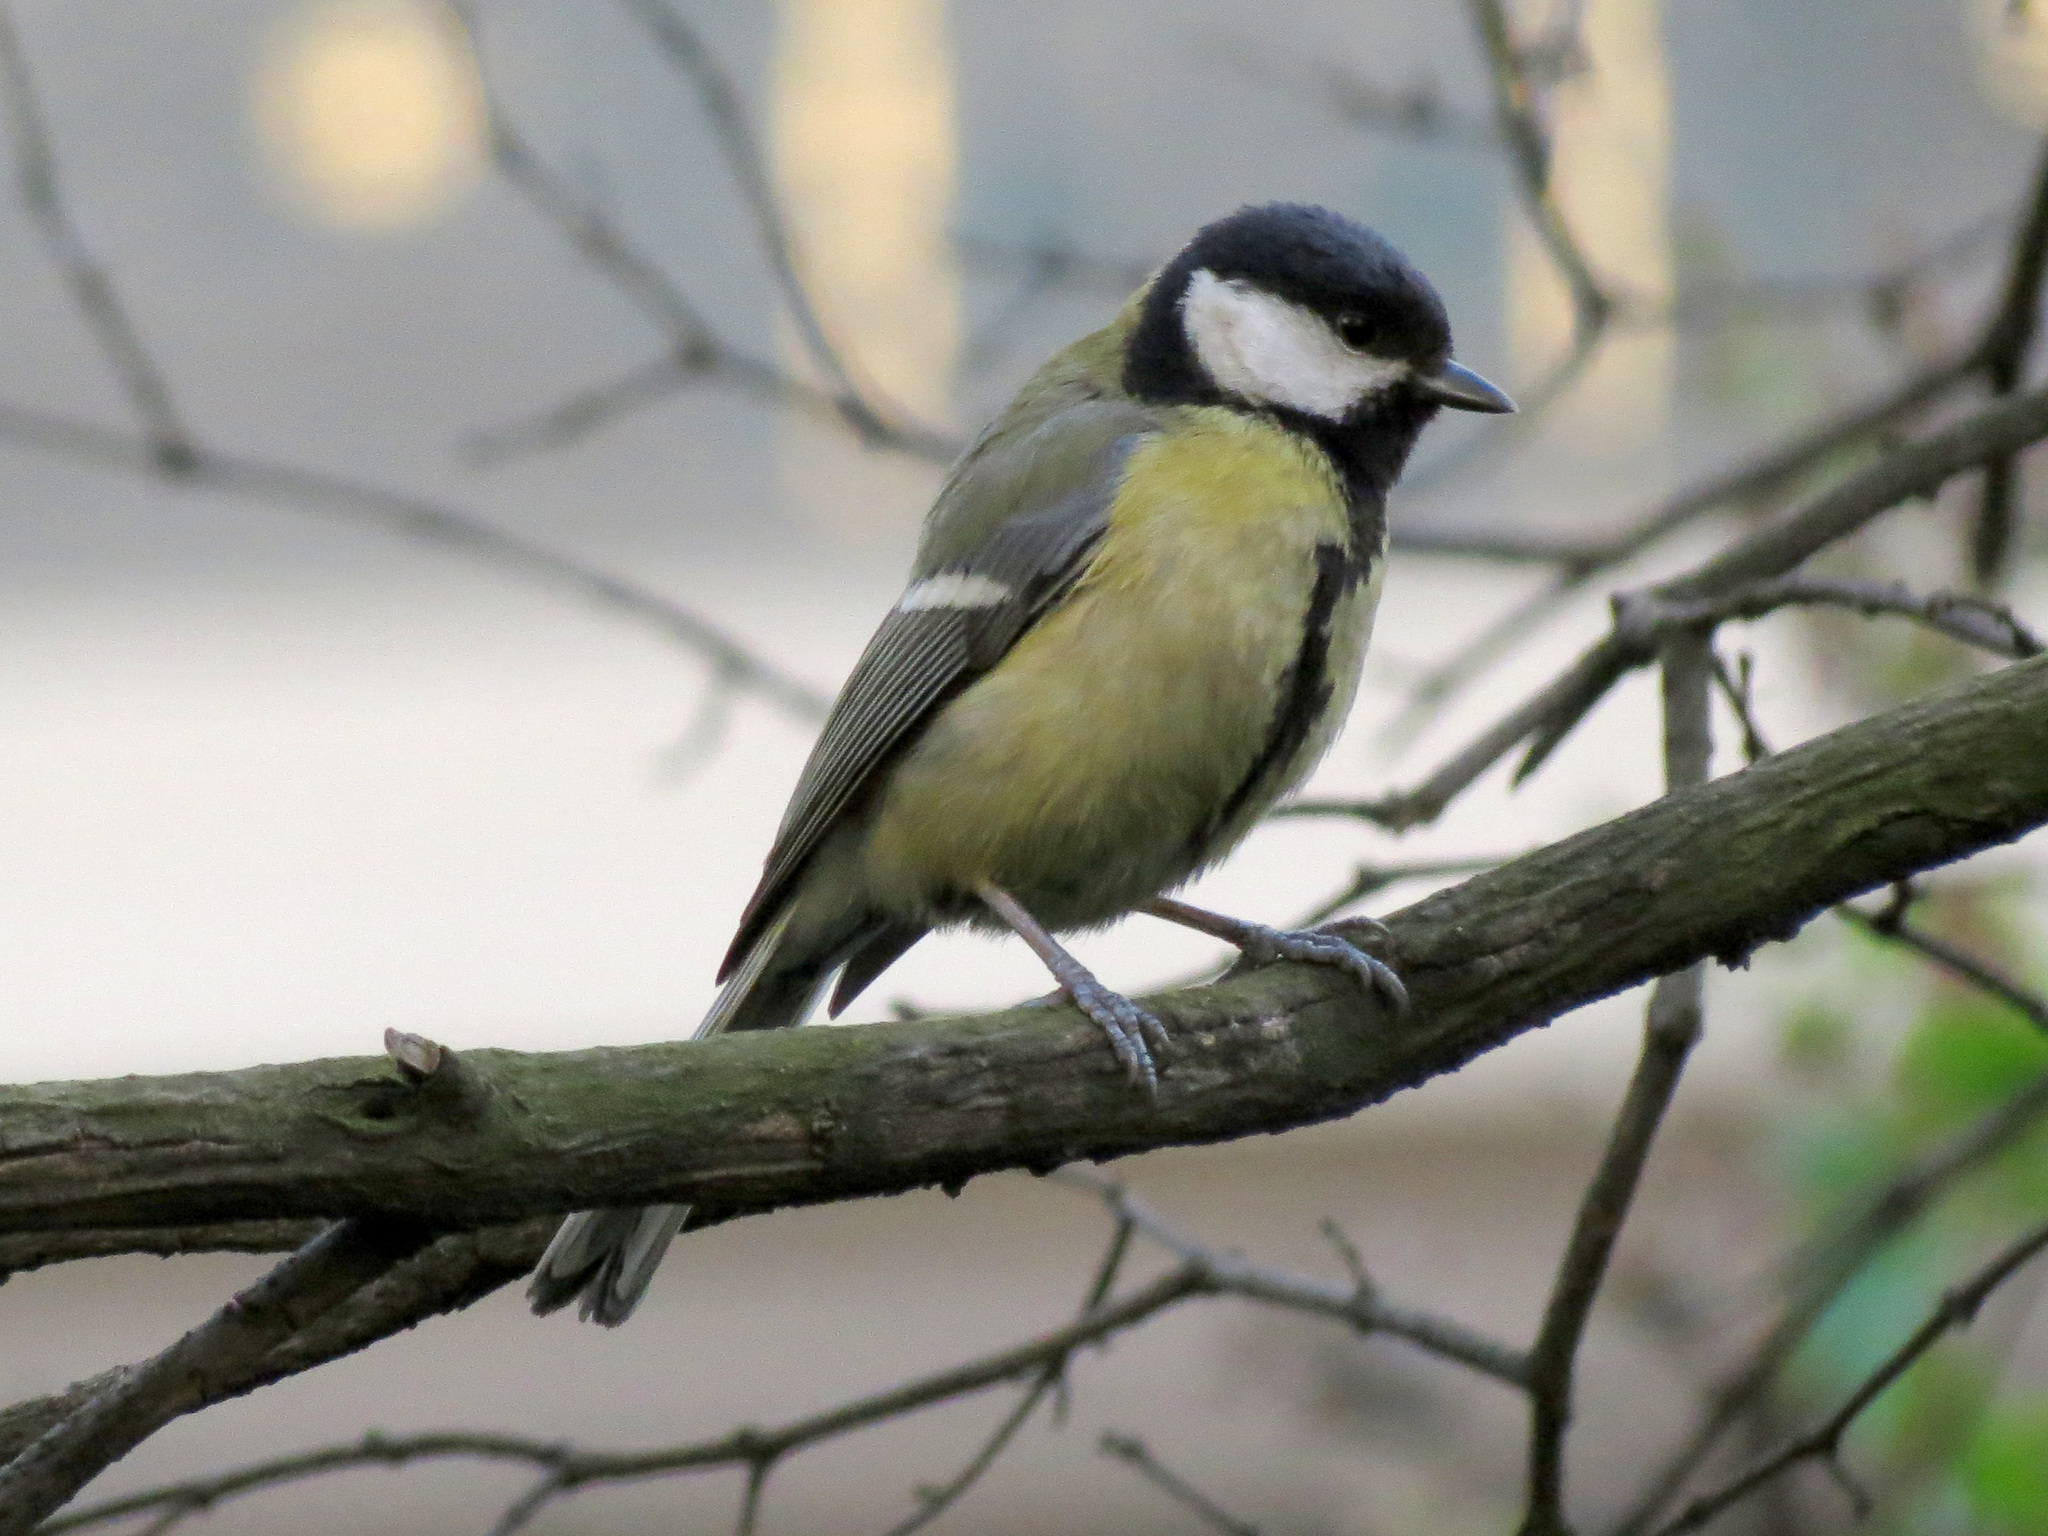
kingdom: Animalia
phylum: Chordata
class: Aves
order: Passeriformes
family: Paridae
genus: Parus
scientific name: Parus major
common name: Great tit
